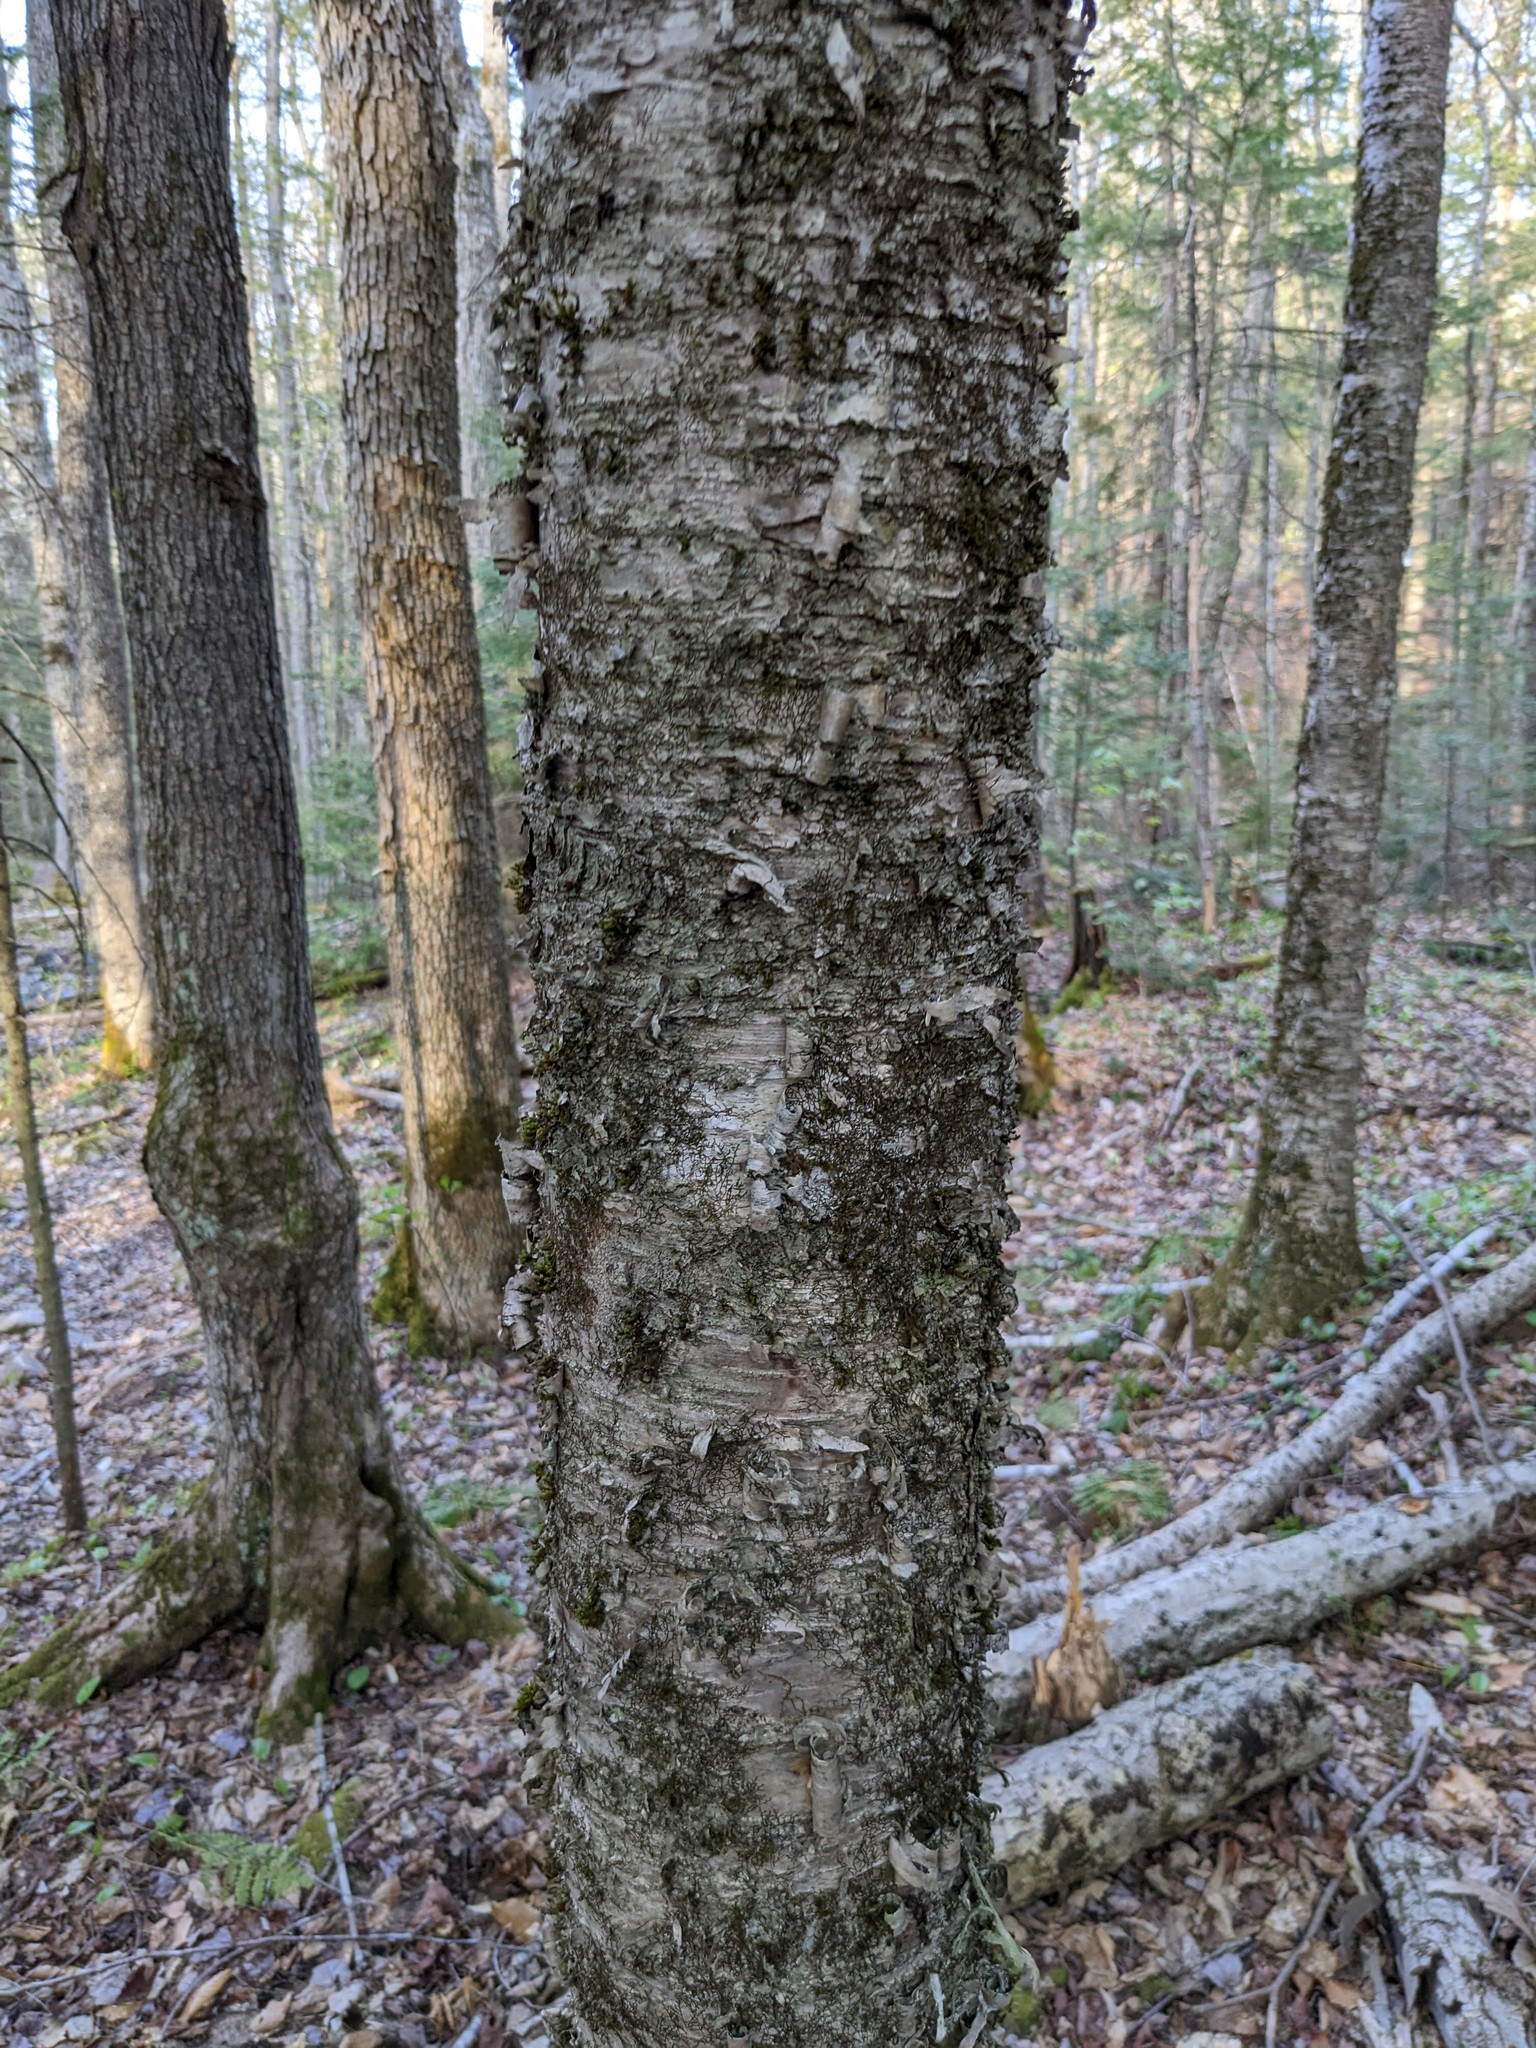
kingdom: Plantae
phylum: Tracheophyta
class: Magnoliopsida
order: Fagales
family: Betulaceae
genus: Betula
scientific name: Betula alleghaniensis
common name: Yellow birch
